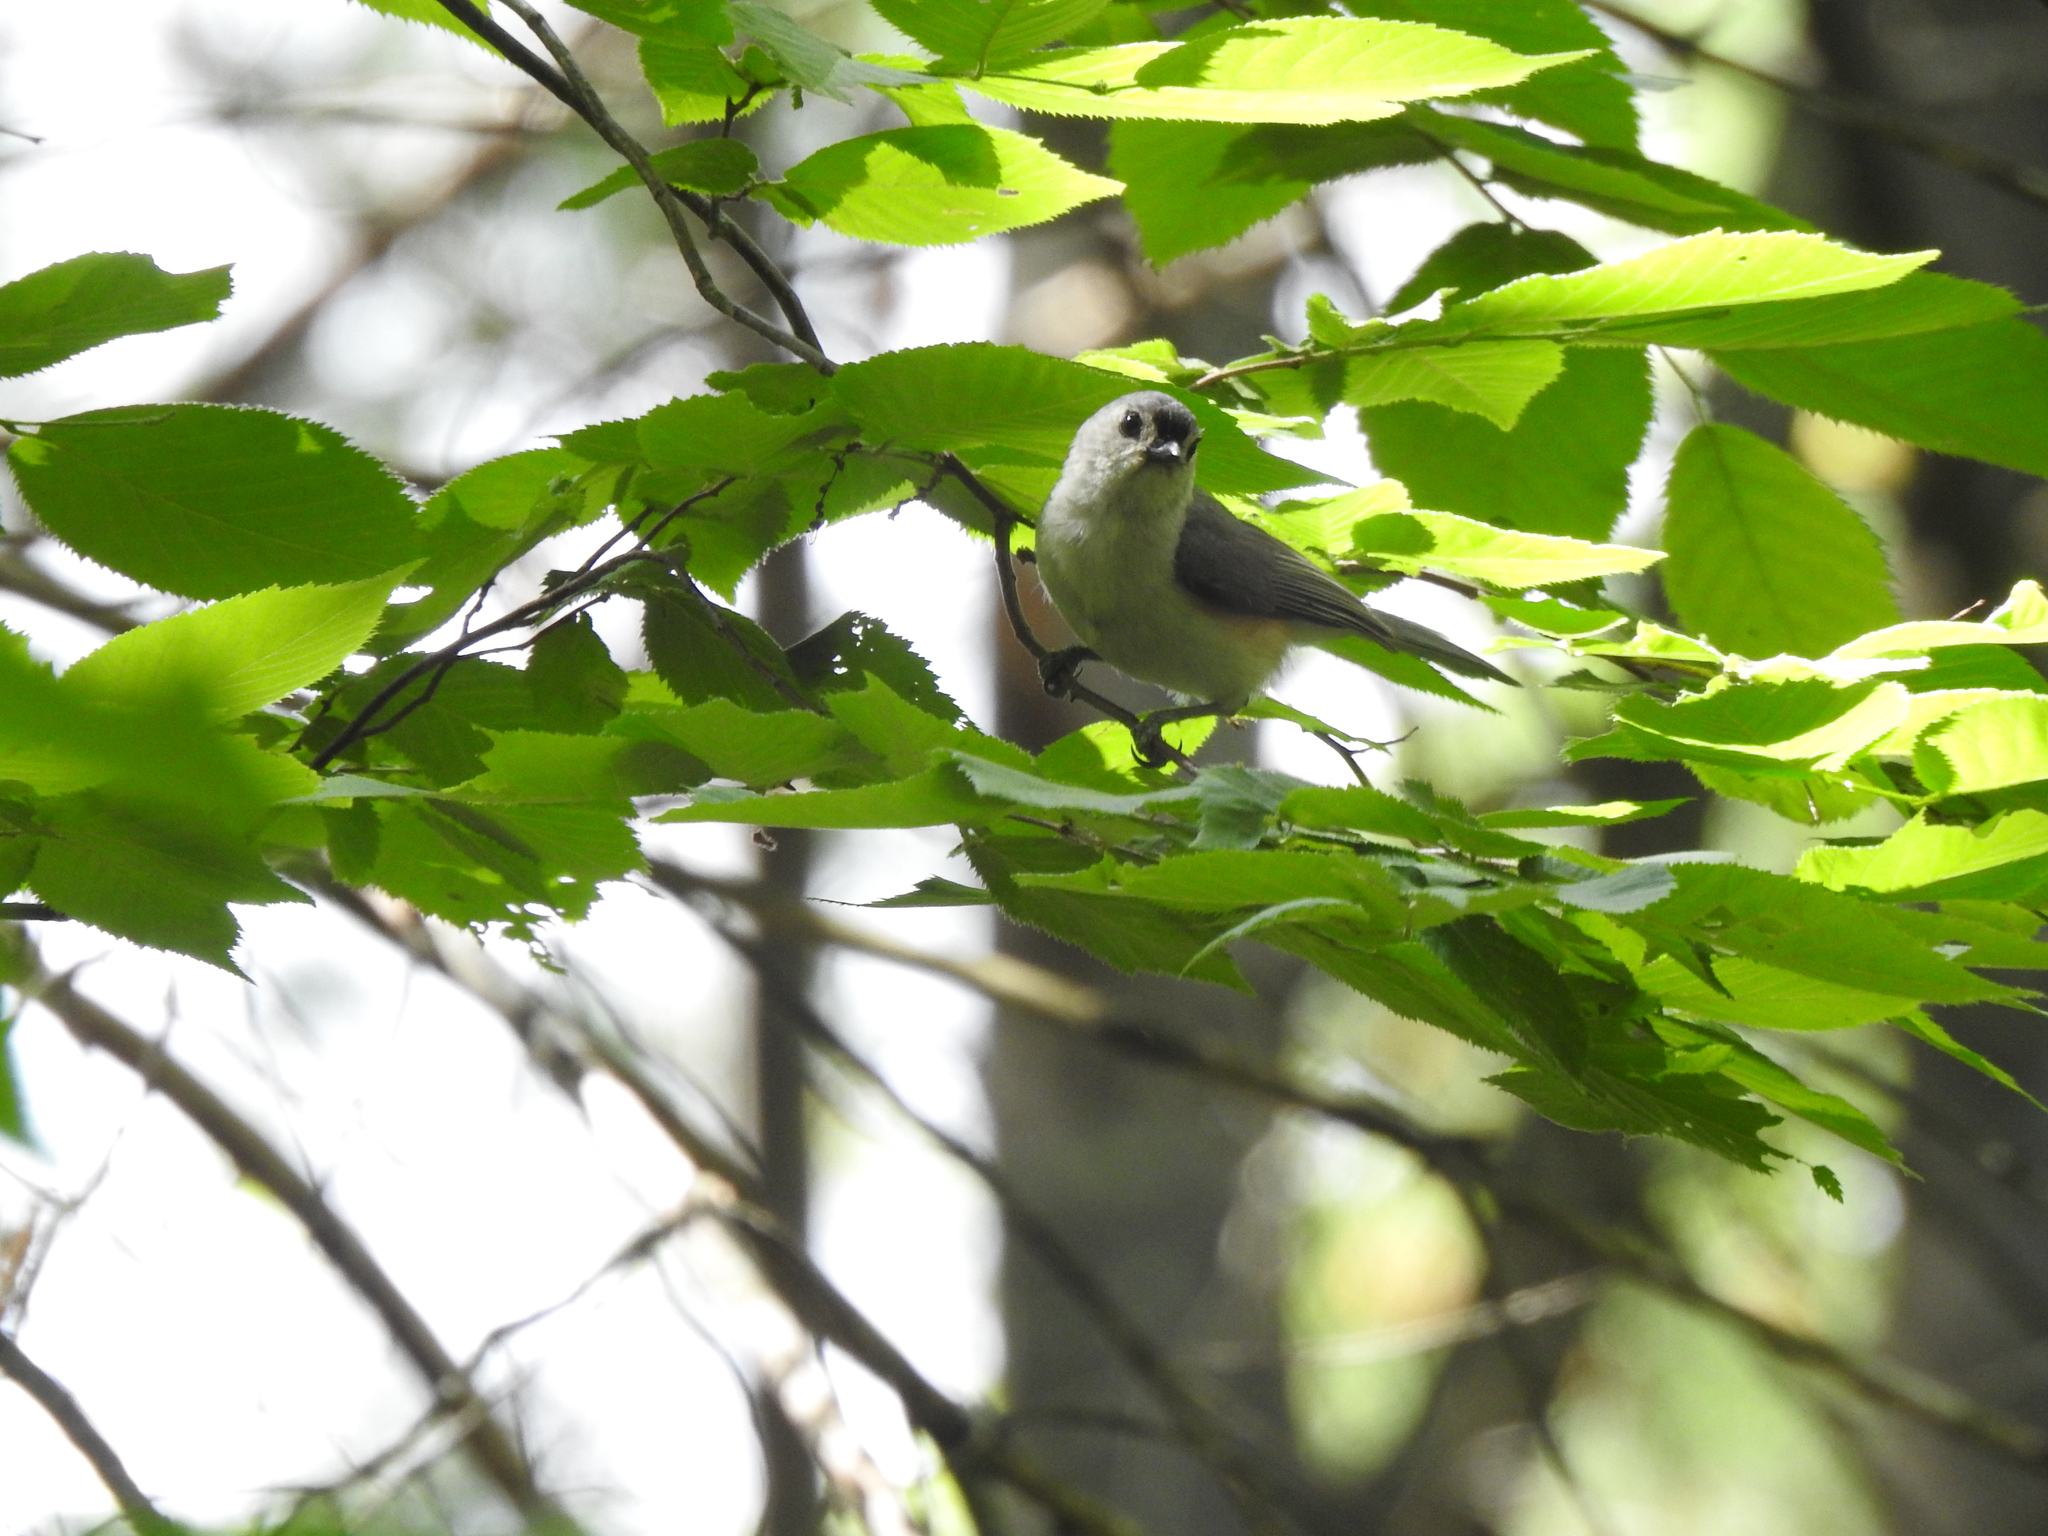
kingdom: Animalia
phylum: Chordata
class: Aves
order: Passeriformes
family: Paridae
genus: Baeolophus
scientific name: Baeolophus bicolor
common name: Tufted titmouse
